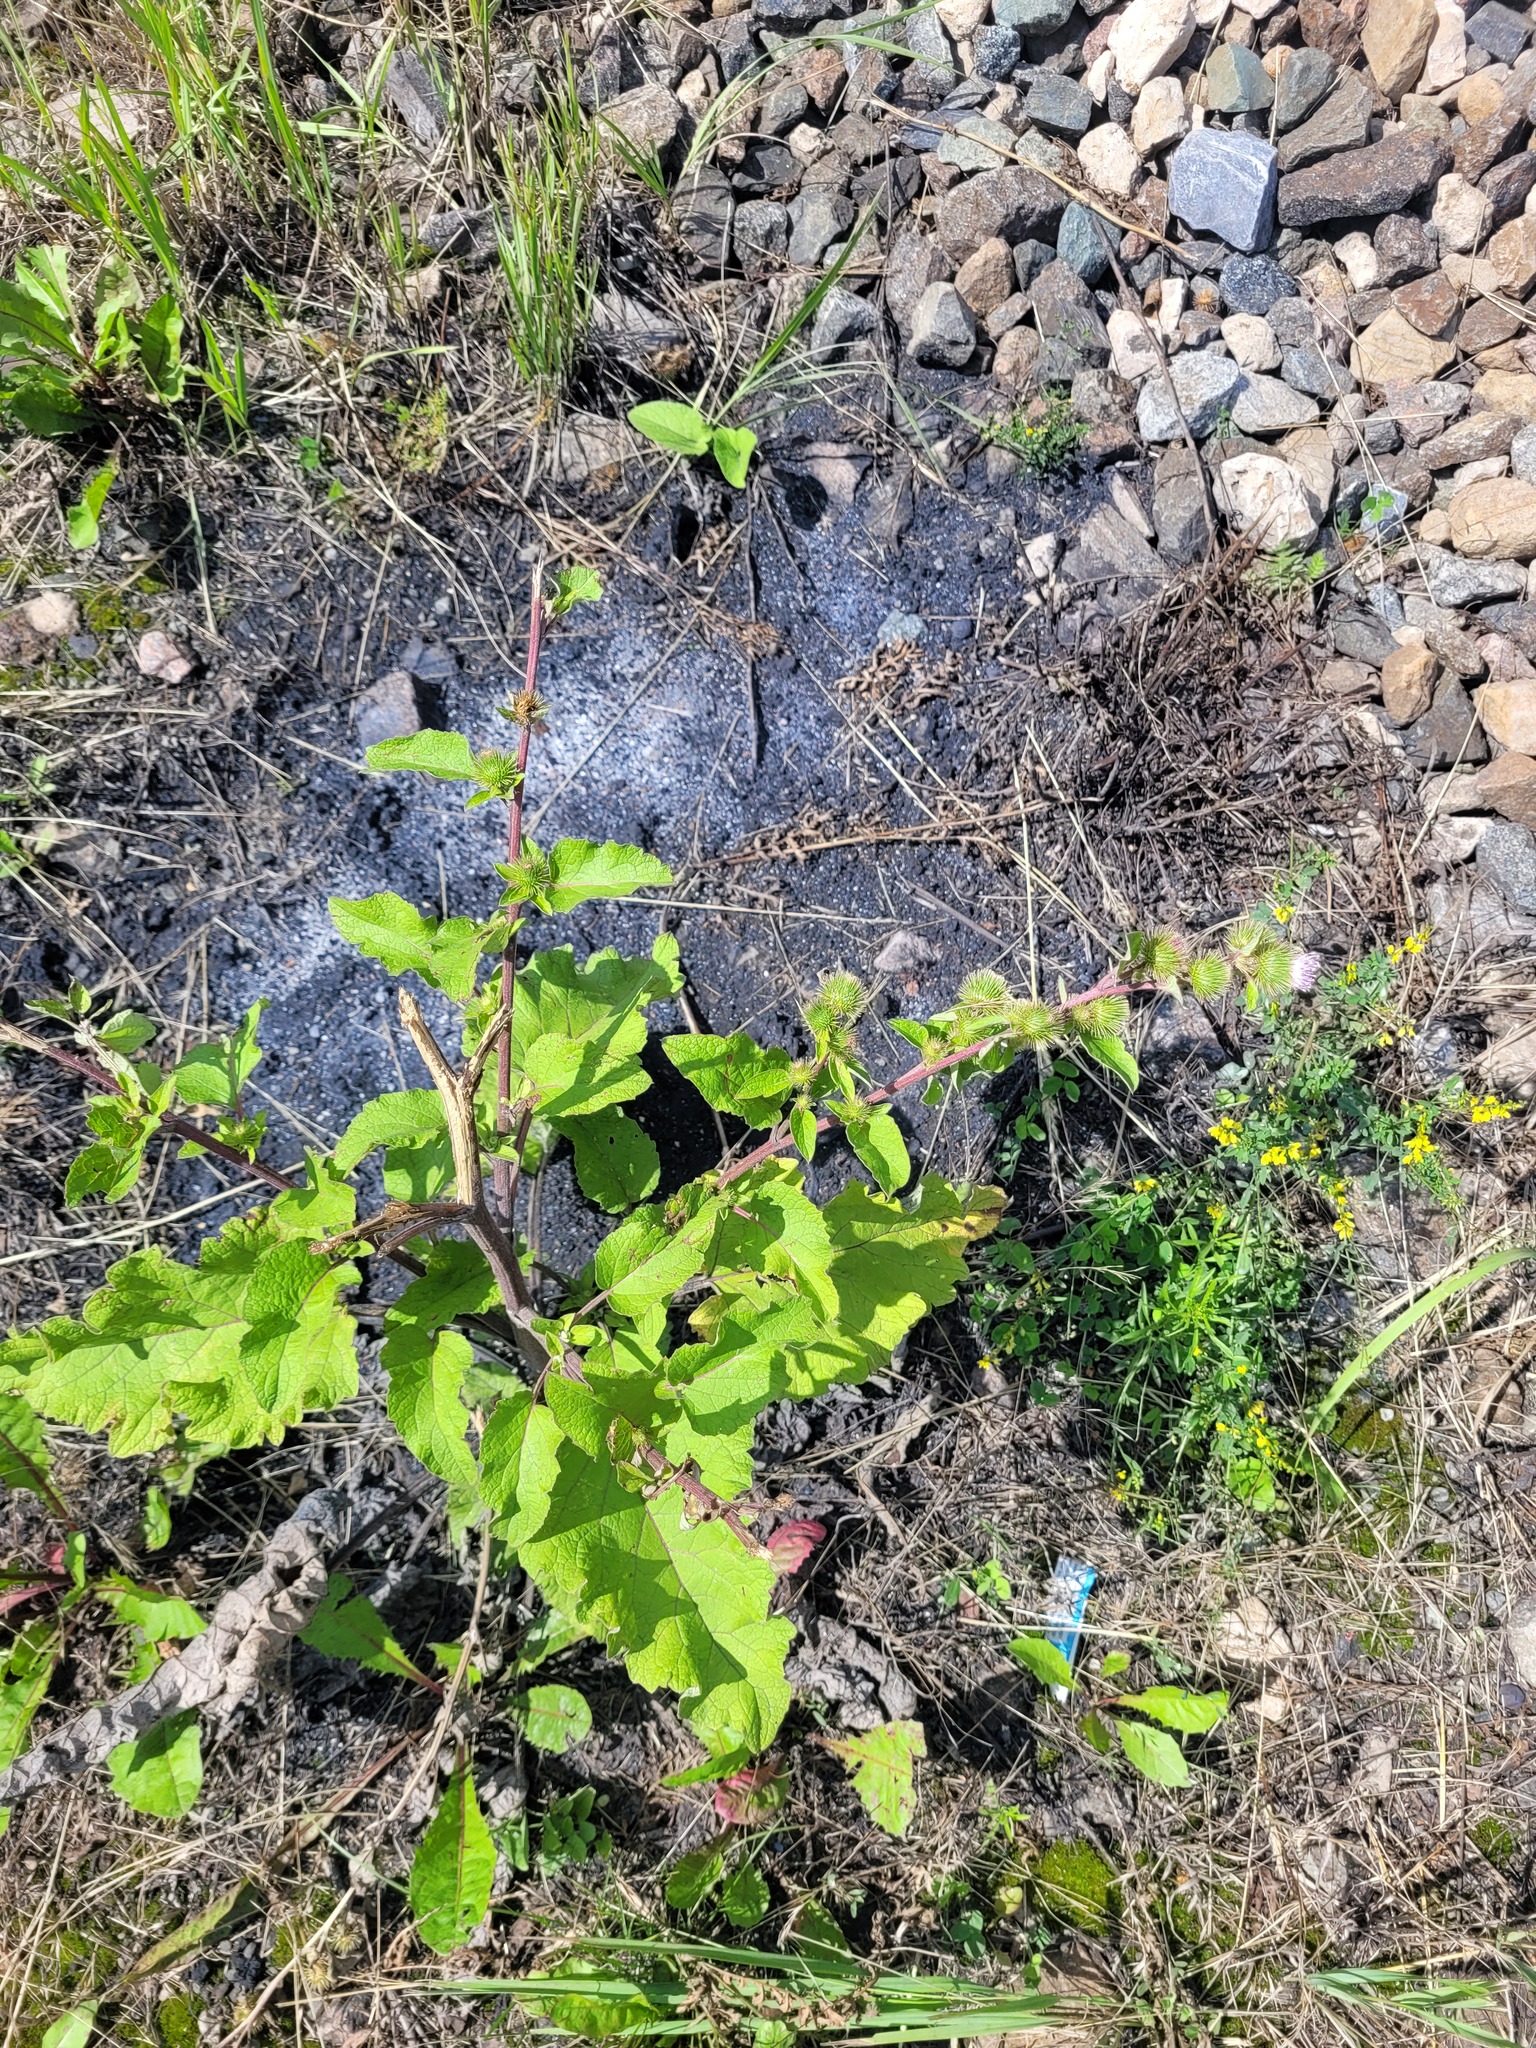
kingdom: Plantae
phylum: Tracheophyta
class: Magnoliopsida
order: Asterales
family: Asteraceae
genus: Arctium
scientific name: Arctium minus
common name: Lesser burdock
